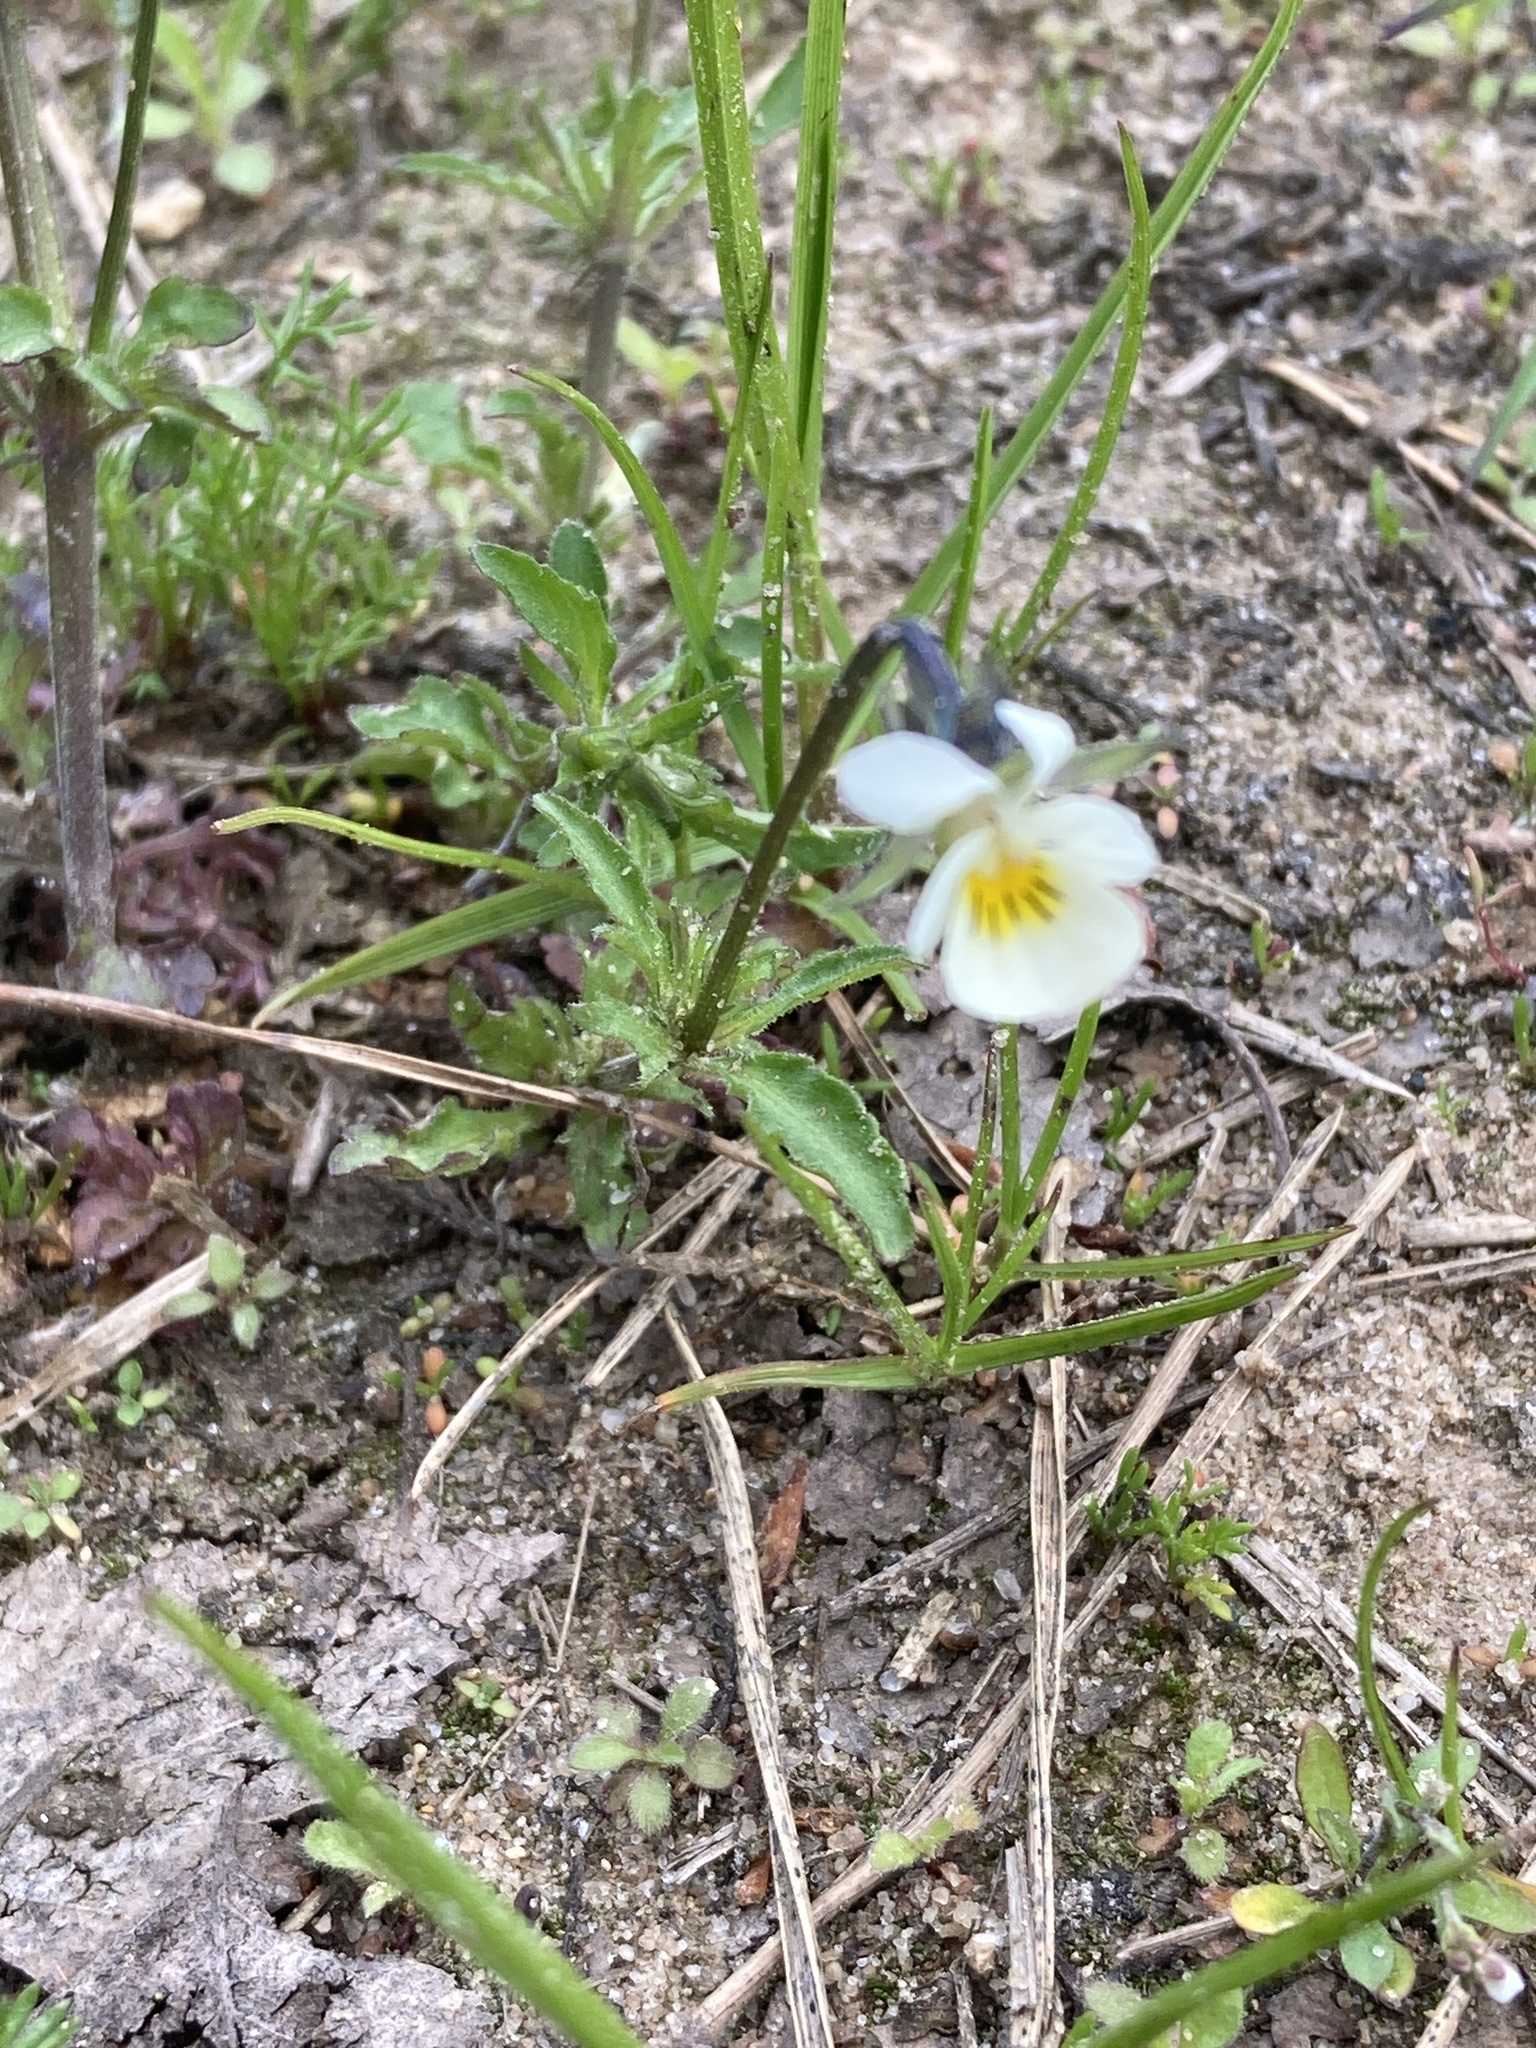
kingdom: Plantae
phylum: Tracheophyta
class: Magnoliopsida
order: Malpighiales
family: Violaceae
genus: Viola
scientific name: Viola arvensis
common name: Field pansy
